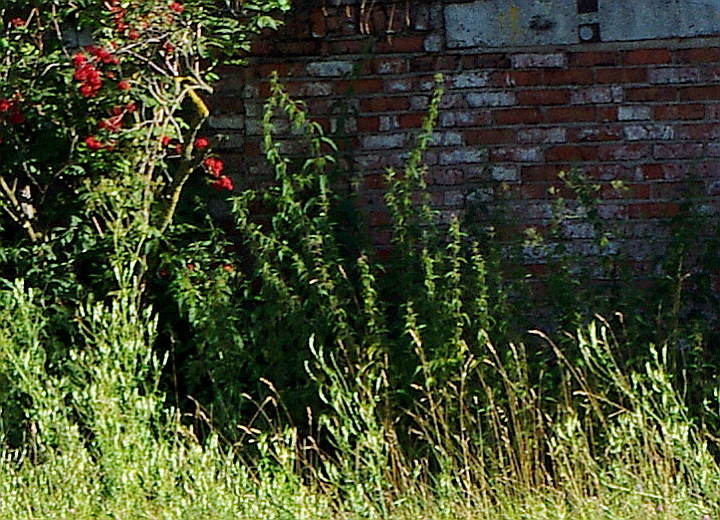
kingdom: Plantae
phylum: Tracheophyta
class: Magnoliopsida
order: Rosales
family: Urticaceae
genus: Urtica
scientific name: Urtica dioica
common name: Common nettle
